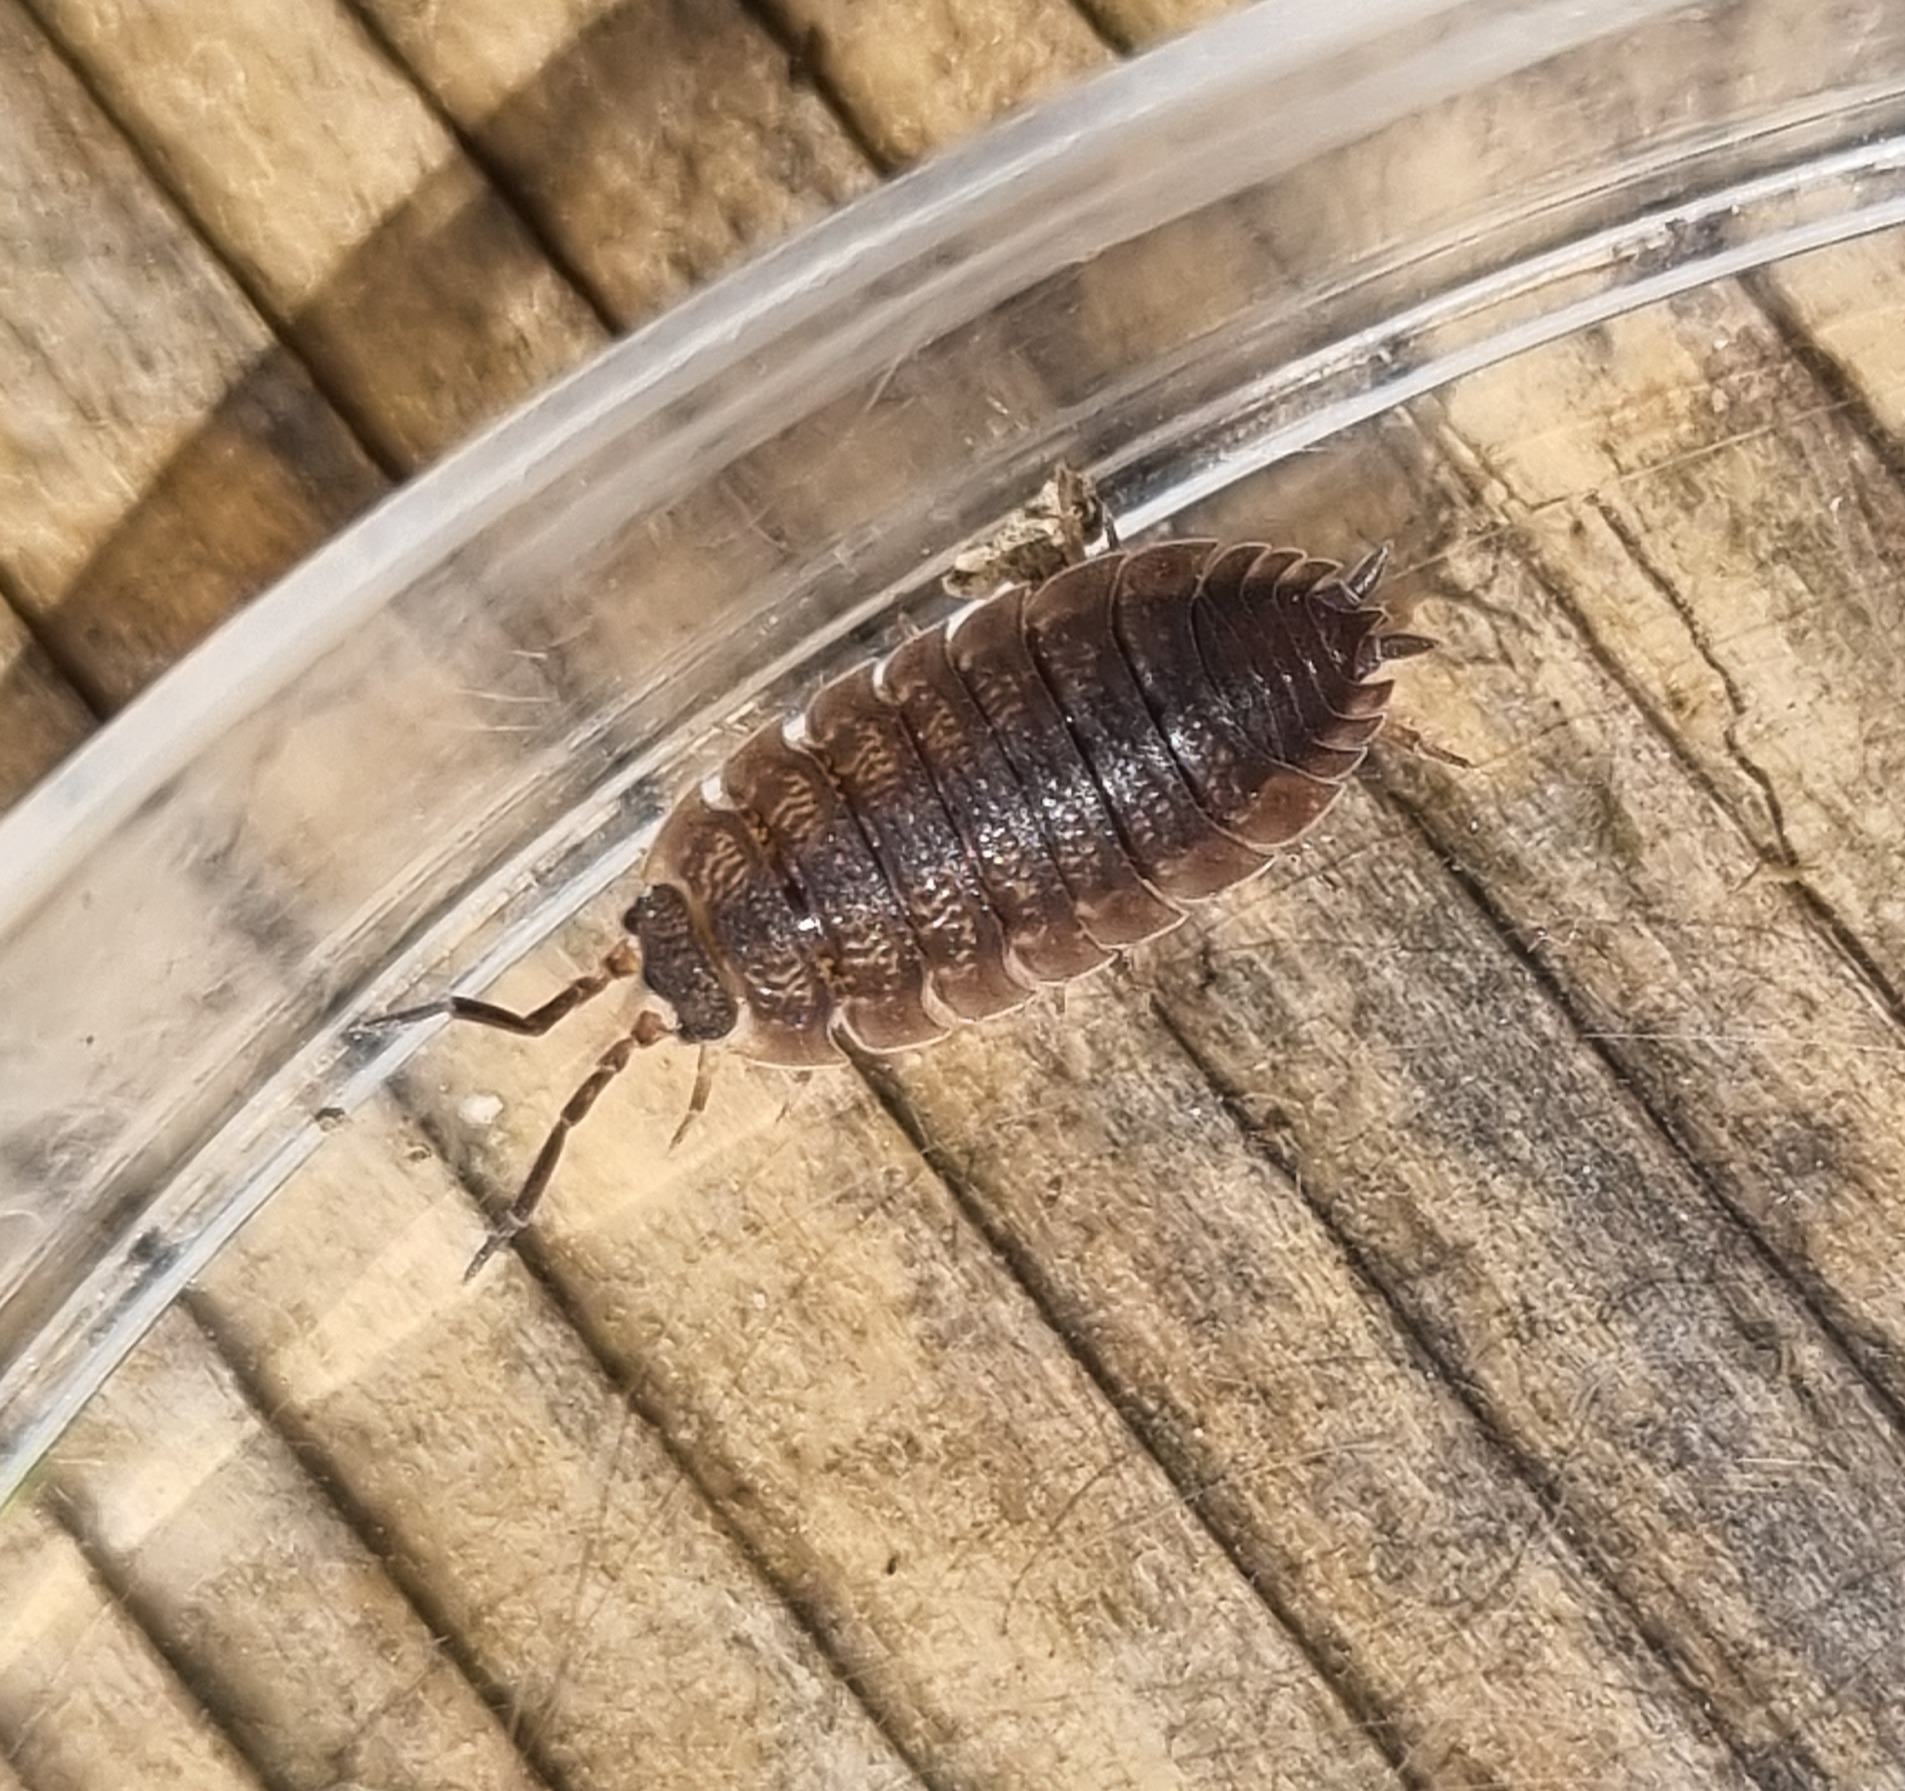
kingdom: Animalia
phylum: Arthropoda
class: Malacostraca
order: Isopoda
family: Porcellionidae
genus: Porcellio
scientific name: Porcellio scaber
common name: Common rough woodlouse
